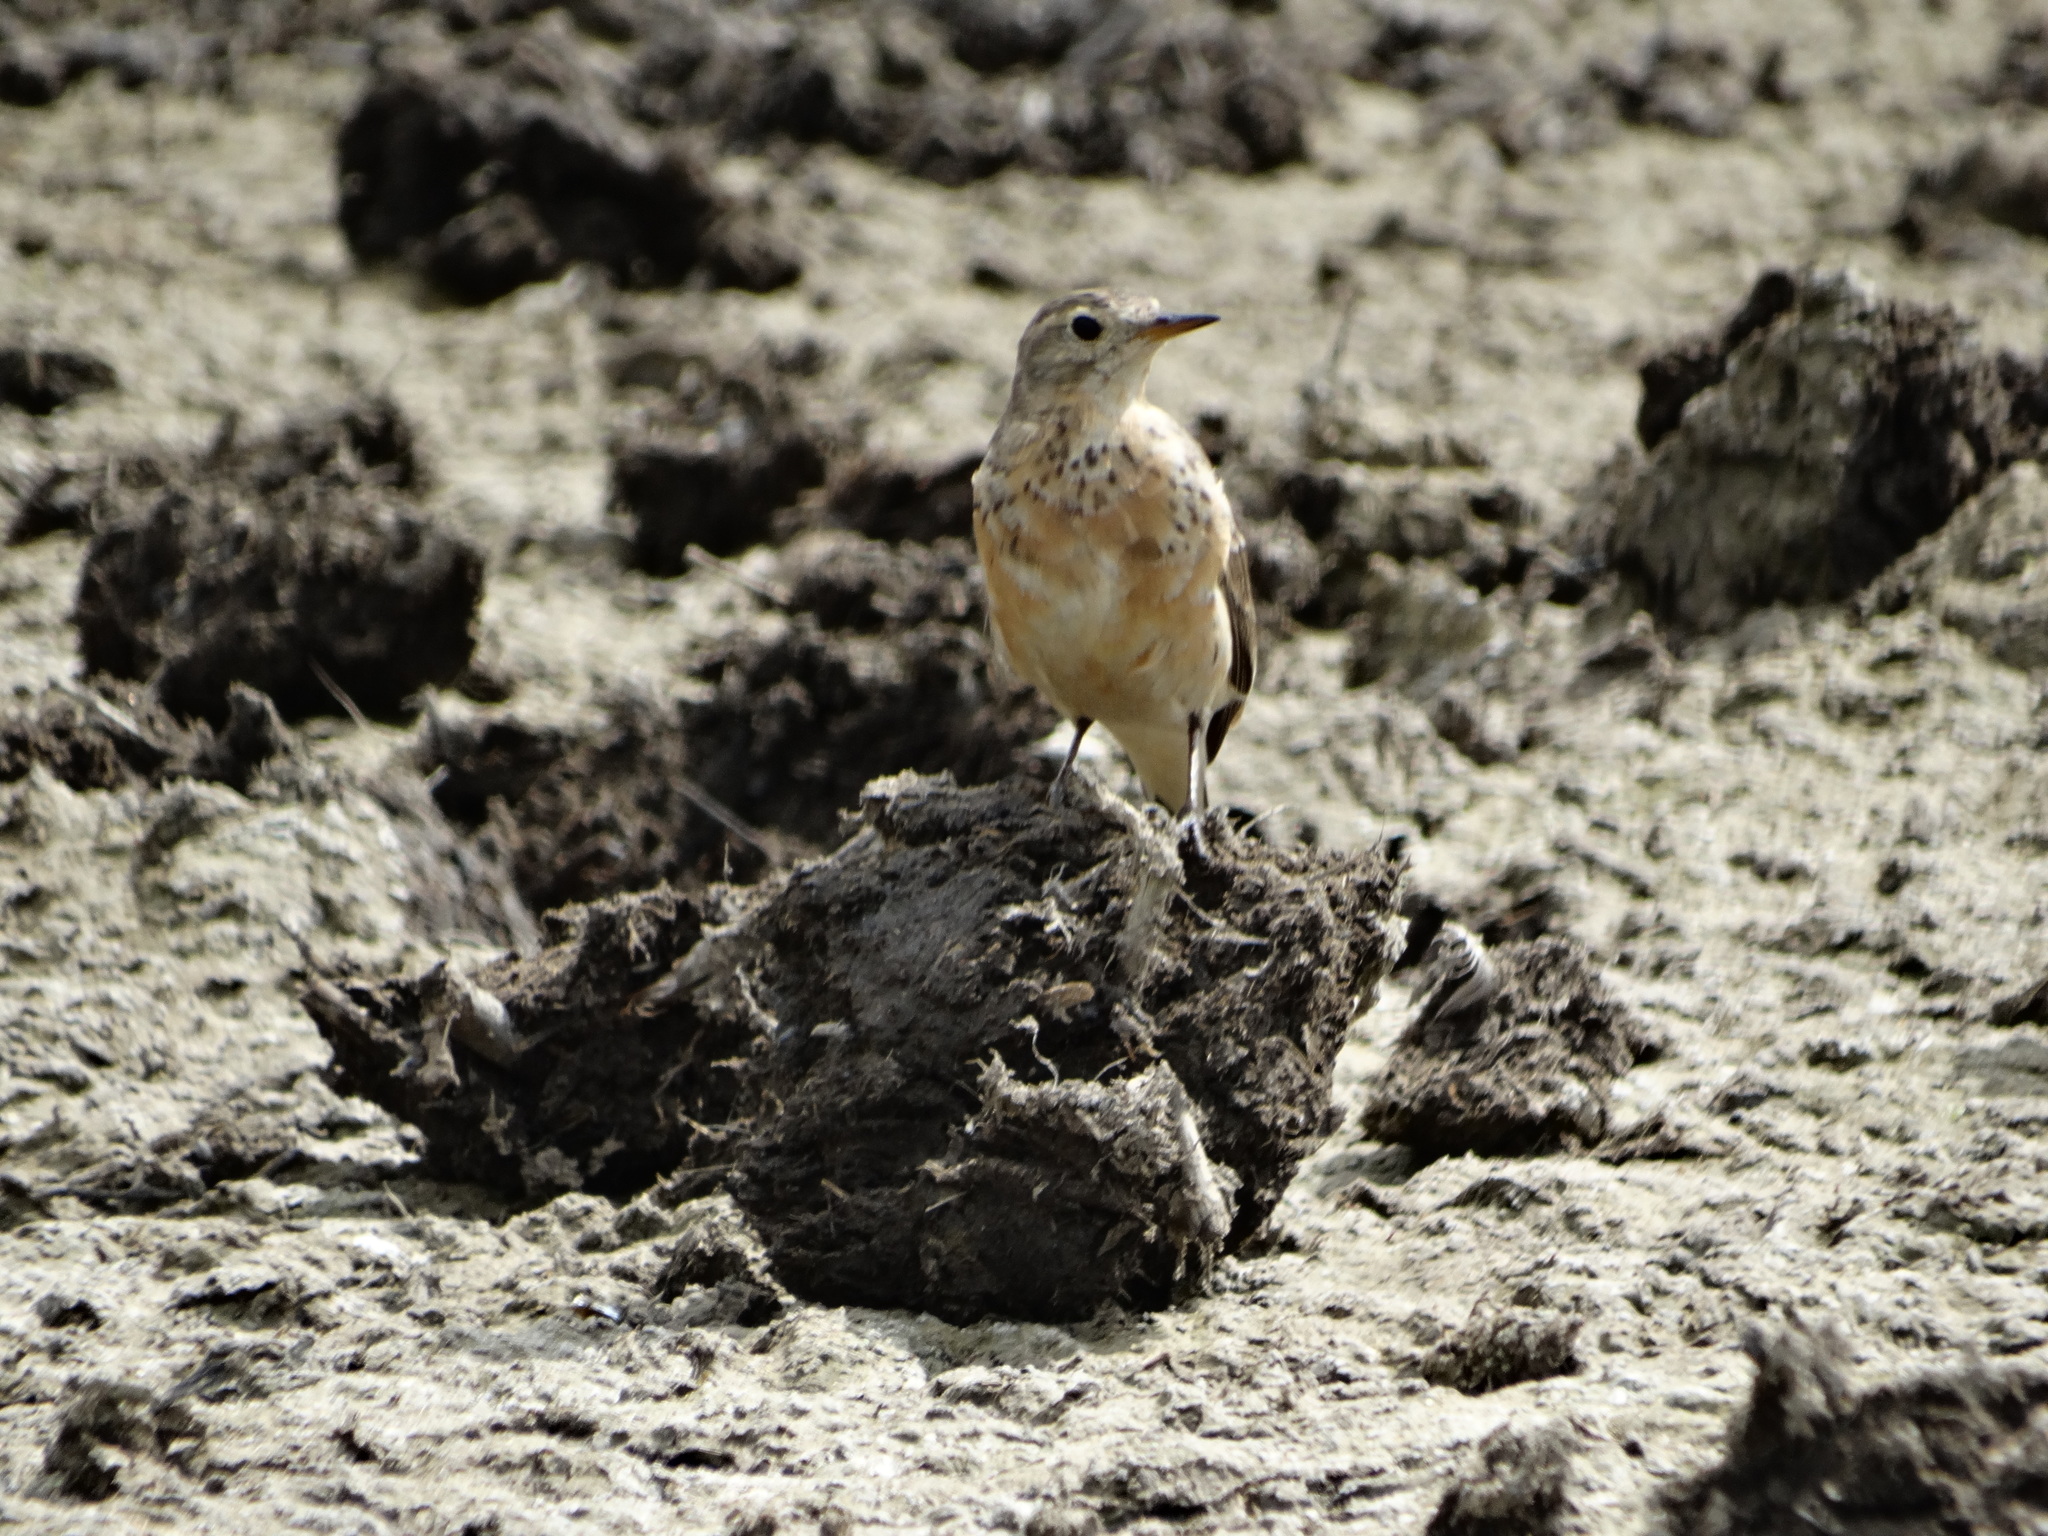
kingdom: Animalia
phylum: Chordata
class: Aves
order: Passeriformes
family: Motacillidae
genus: Anthus
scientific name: Anthus rubescens
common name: Buff-bellied pipit
